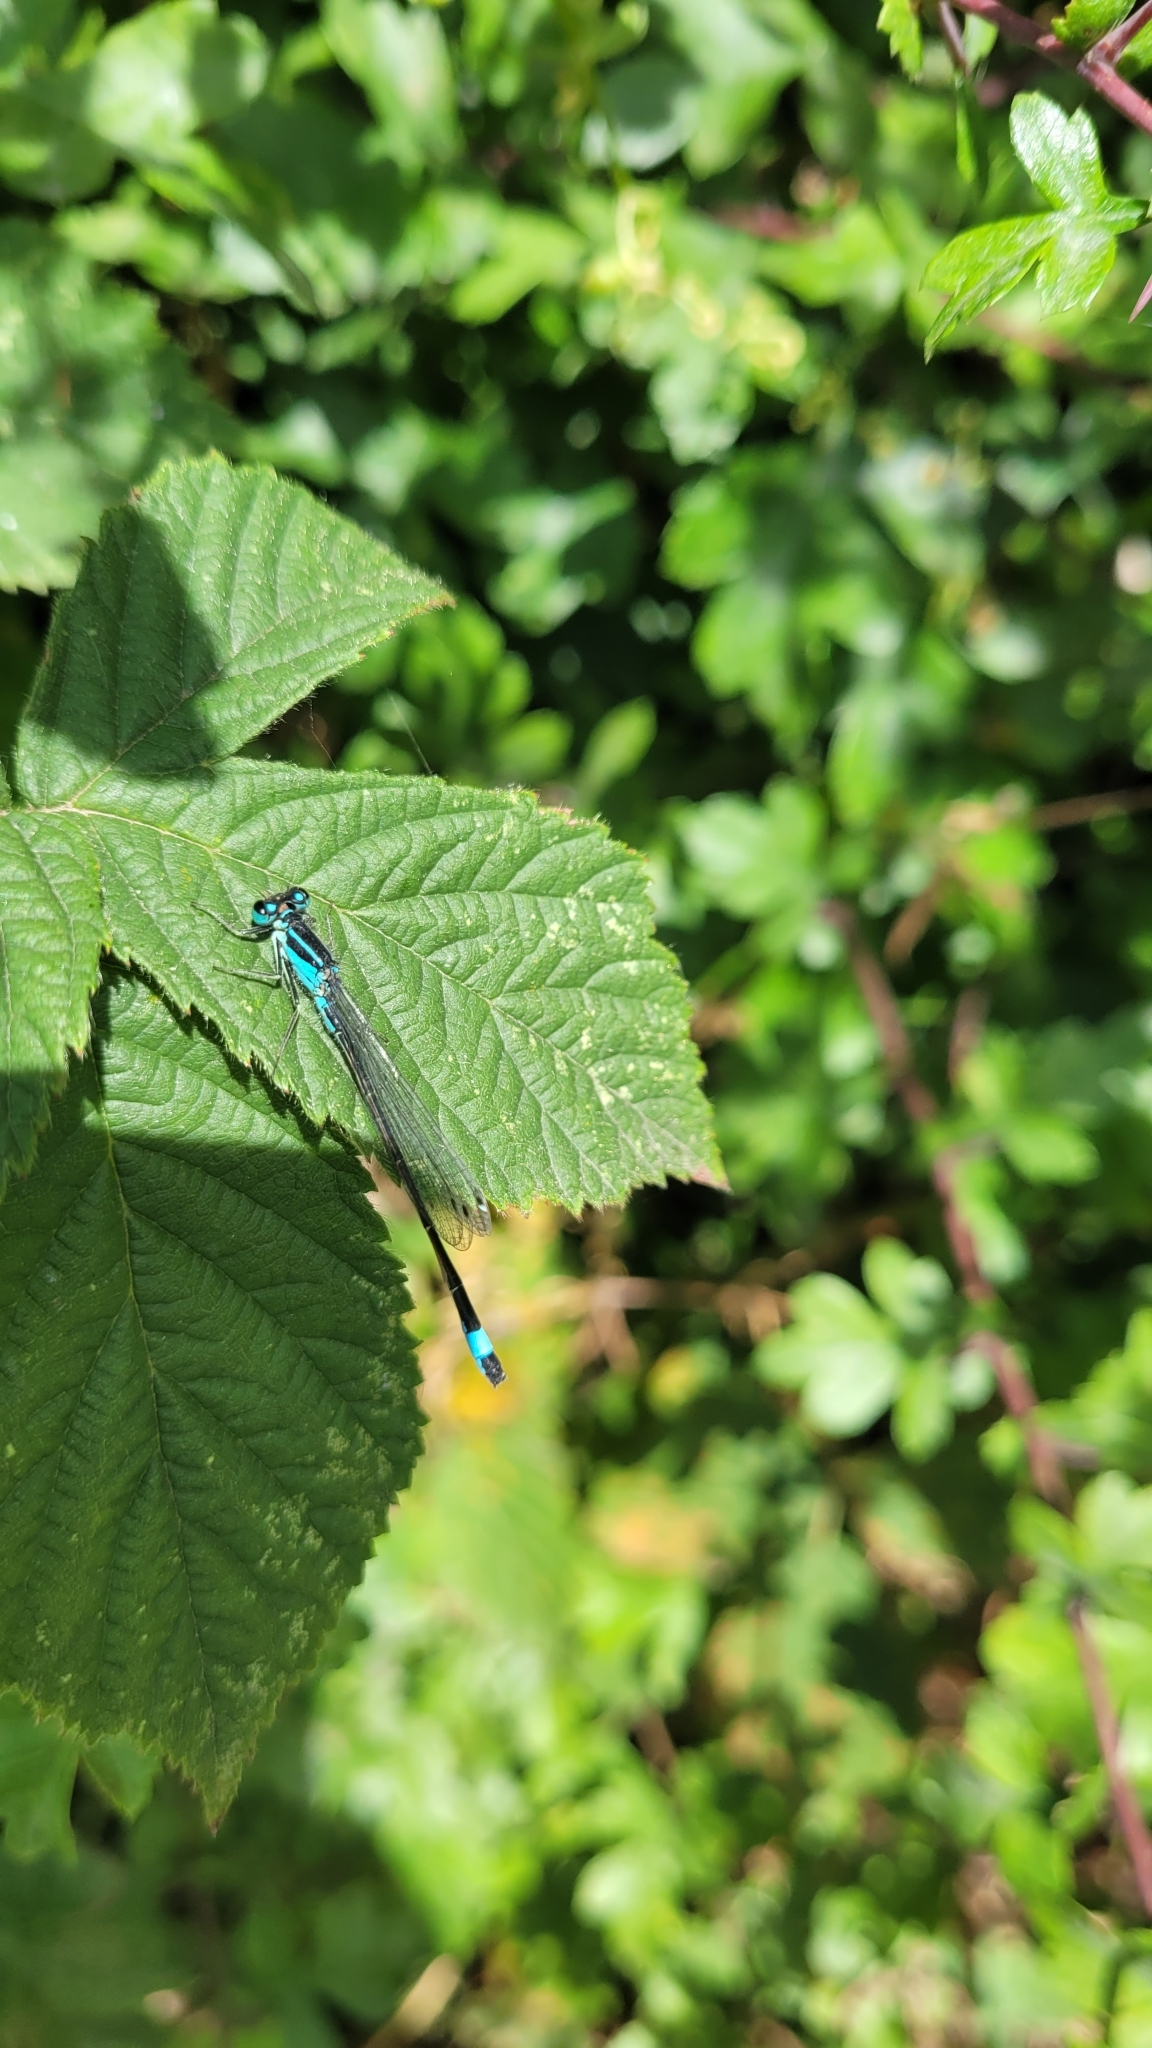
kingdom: Animalia
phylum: Arthropoda
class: Insecta
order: Odonata
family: Coenagrionidae
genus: Ischnura
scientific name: Ischnura elegans
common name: Blue-tailed damselfly
